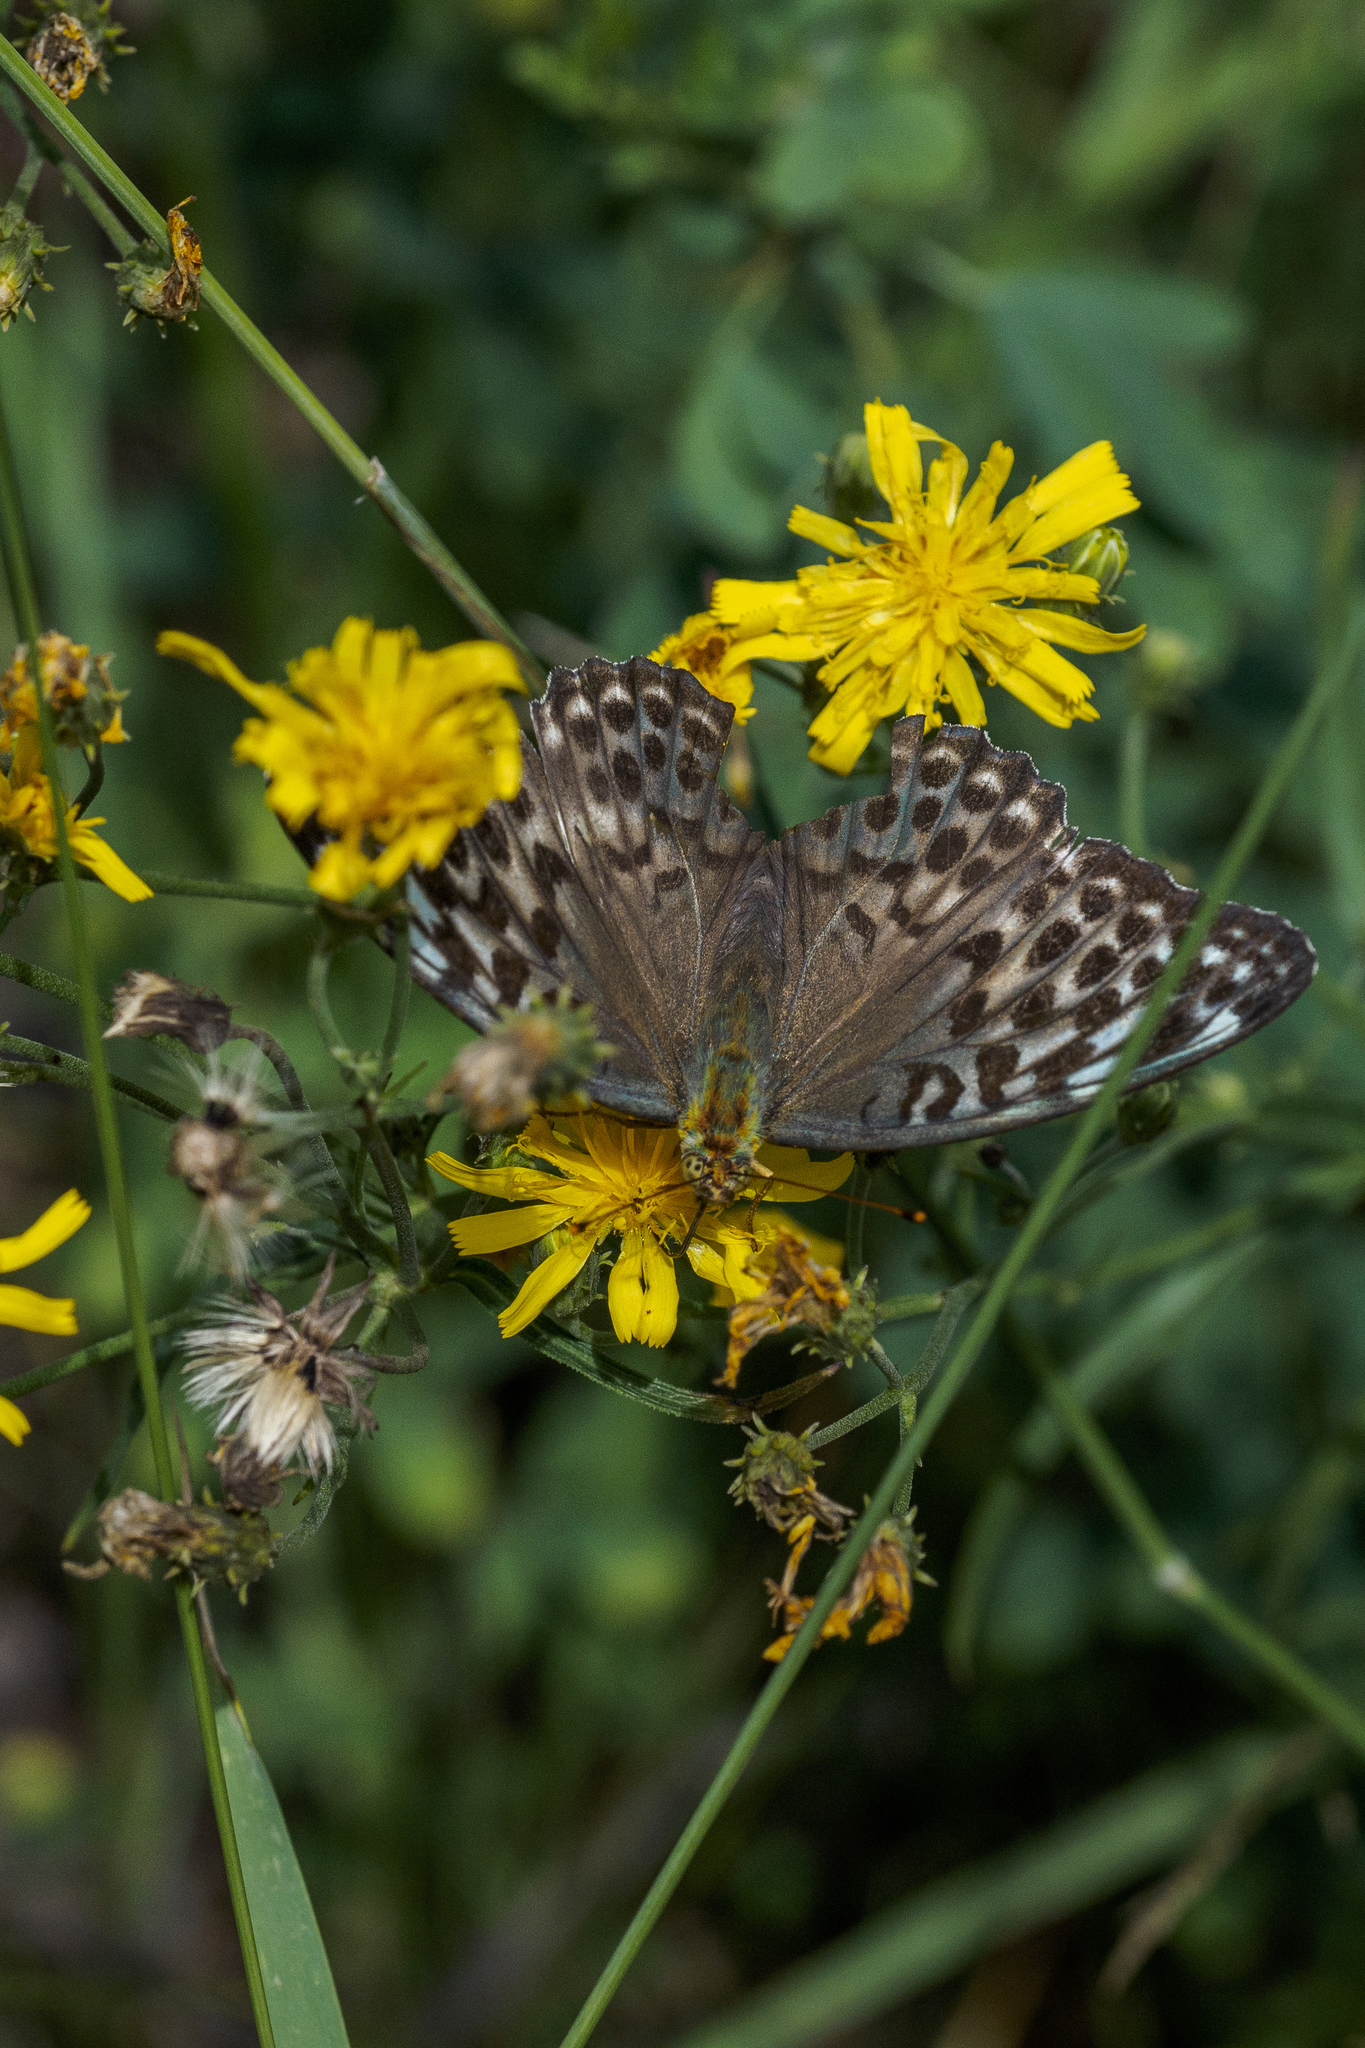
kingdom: Animalia
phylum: Arthropoda
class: Insecta
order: Lepidoptera
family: Nymphalidae
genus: Argynnis
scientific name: Argynnis paphia
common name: Silver-washed fritillary
